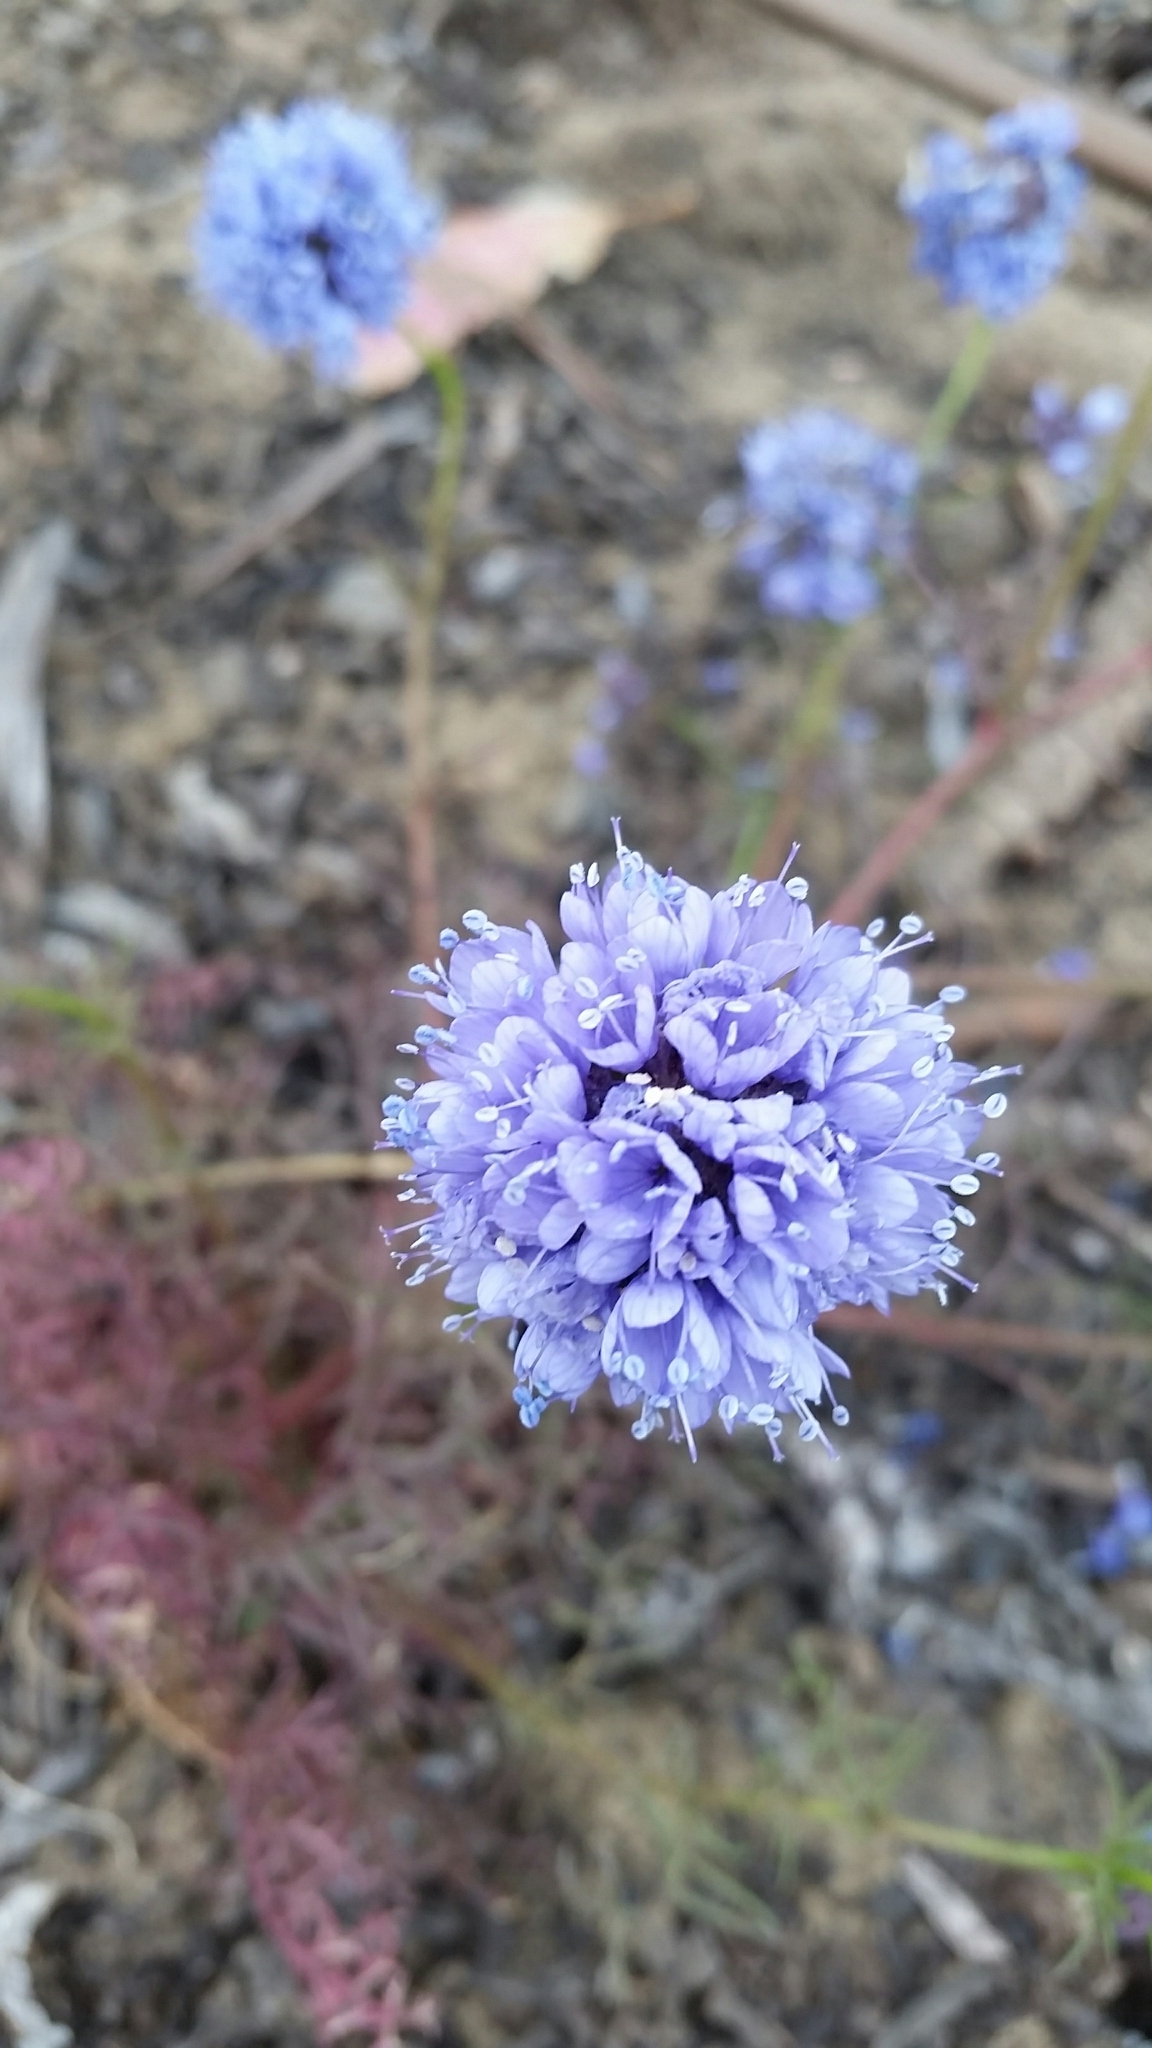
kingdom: Plantae
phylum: Tracheophyta
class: Magnoliopsida
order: Ericales
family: Polemoniaceae
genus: Gilia
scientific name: Gilia capitata
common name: Bluehead gilia
